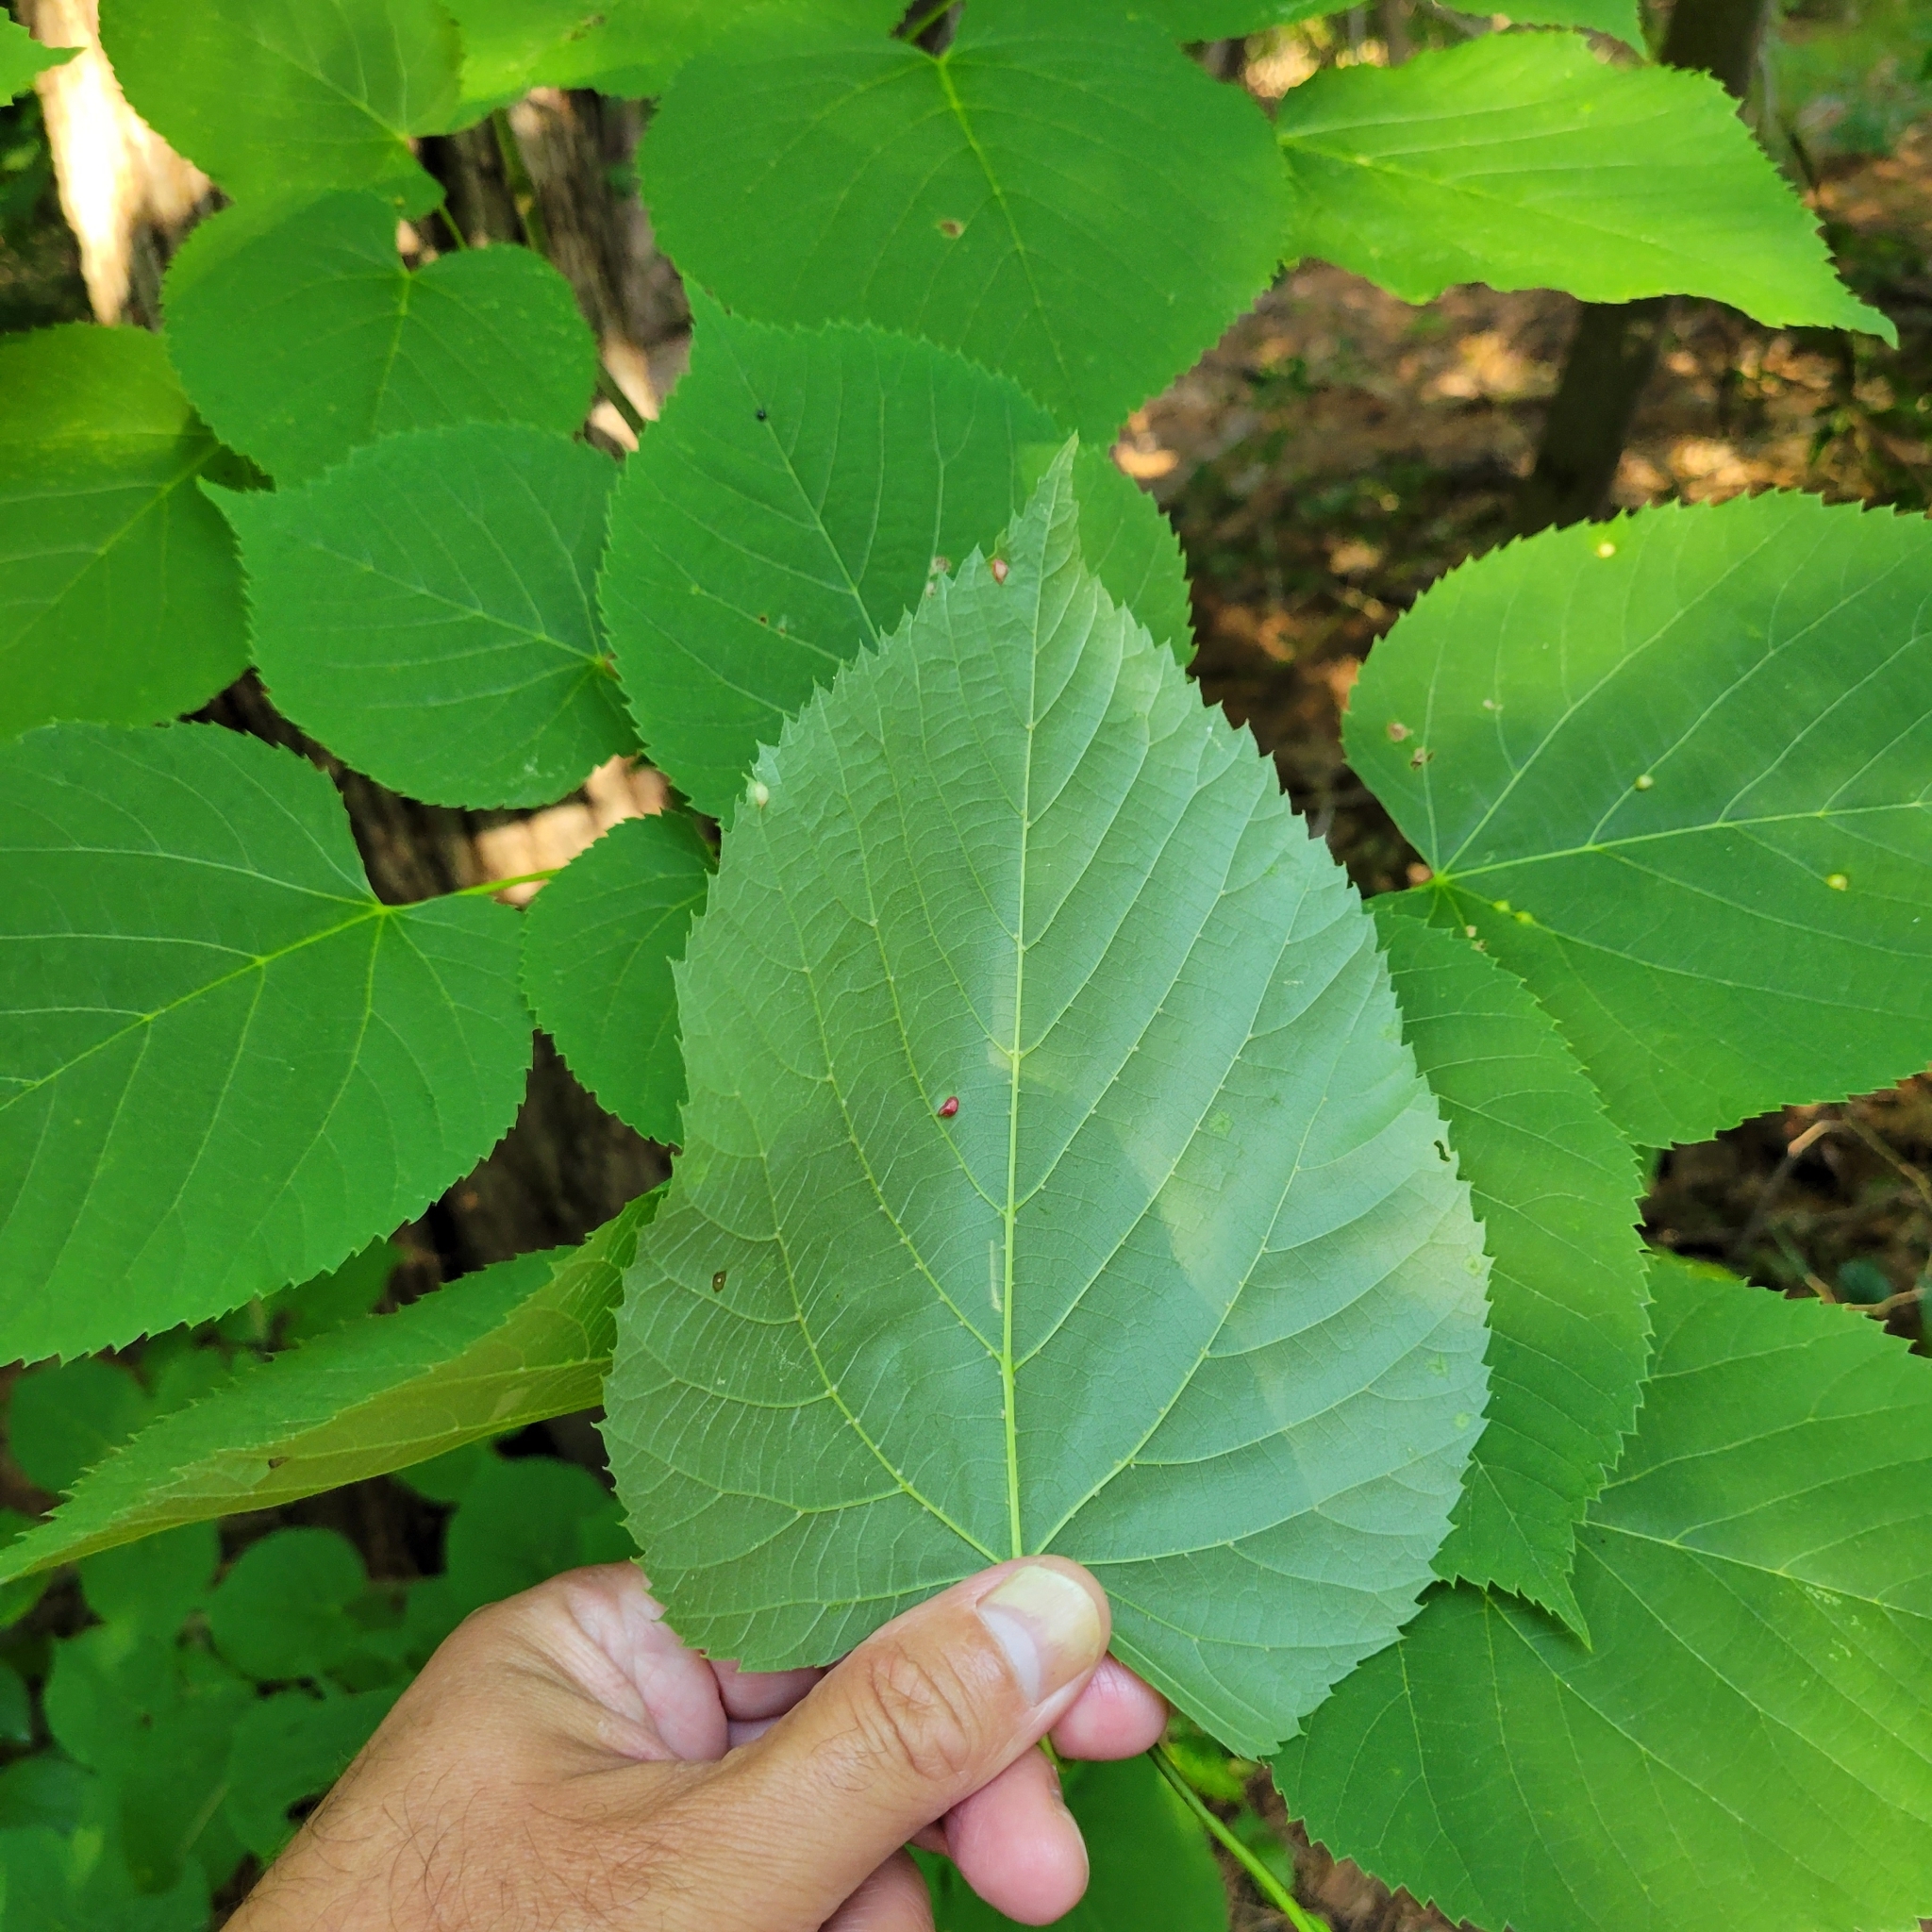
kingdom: Plantae
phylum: Tracheophyta
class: Magnoliopsida
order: Malvales
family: Malvaceae
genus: Tilia
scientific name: Tilia americana
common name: Basswood
